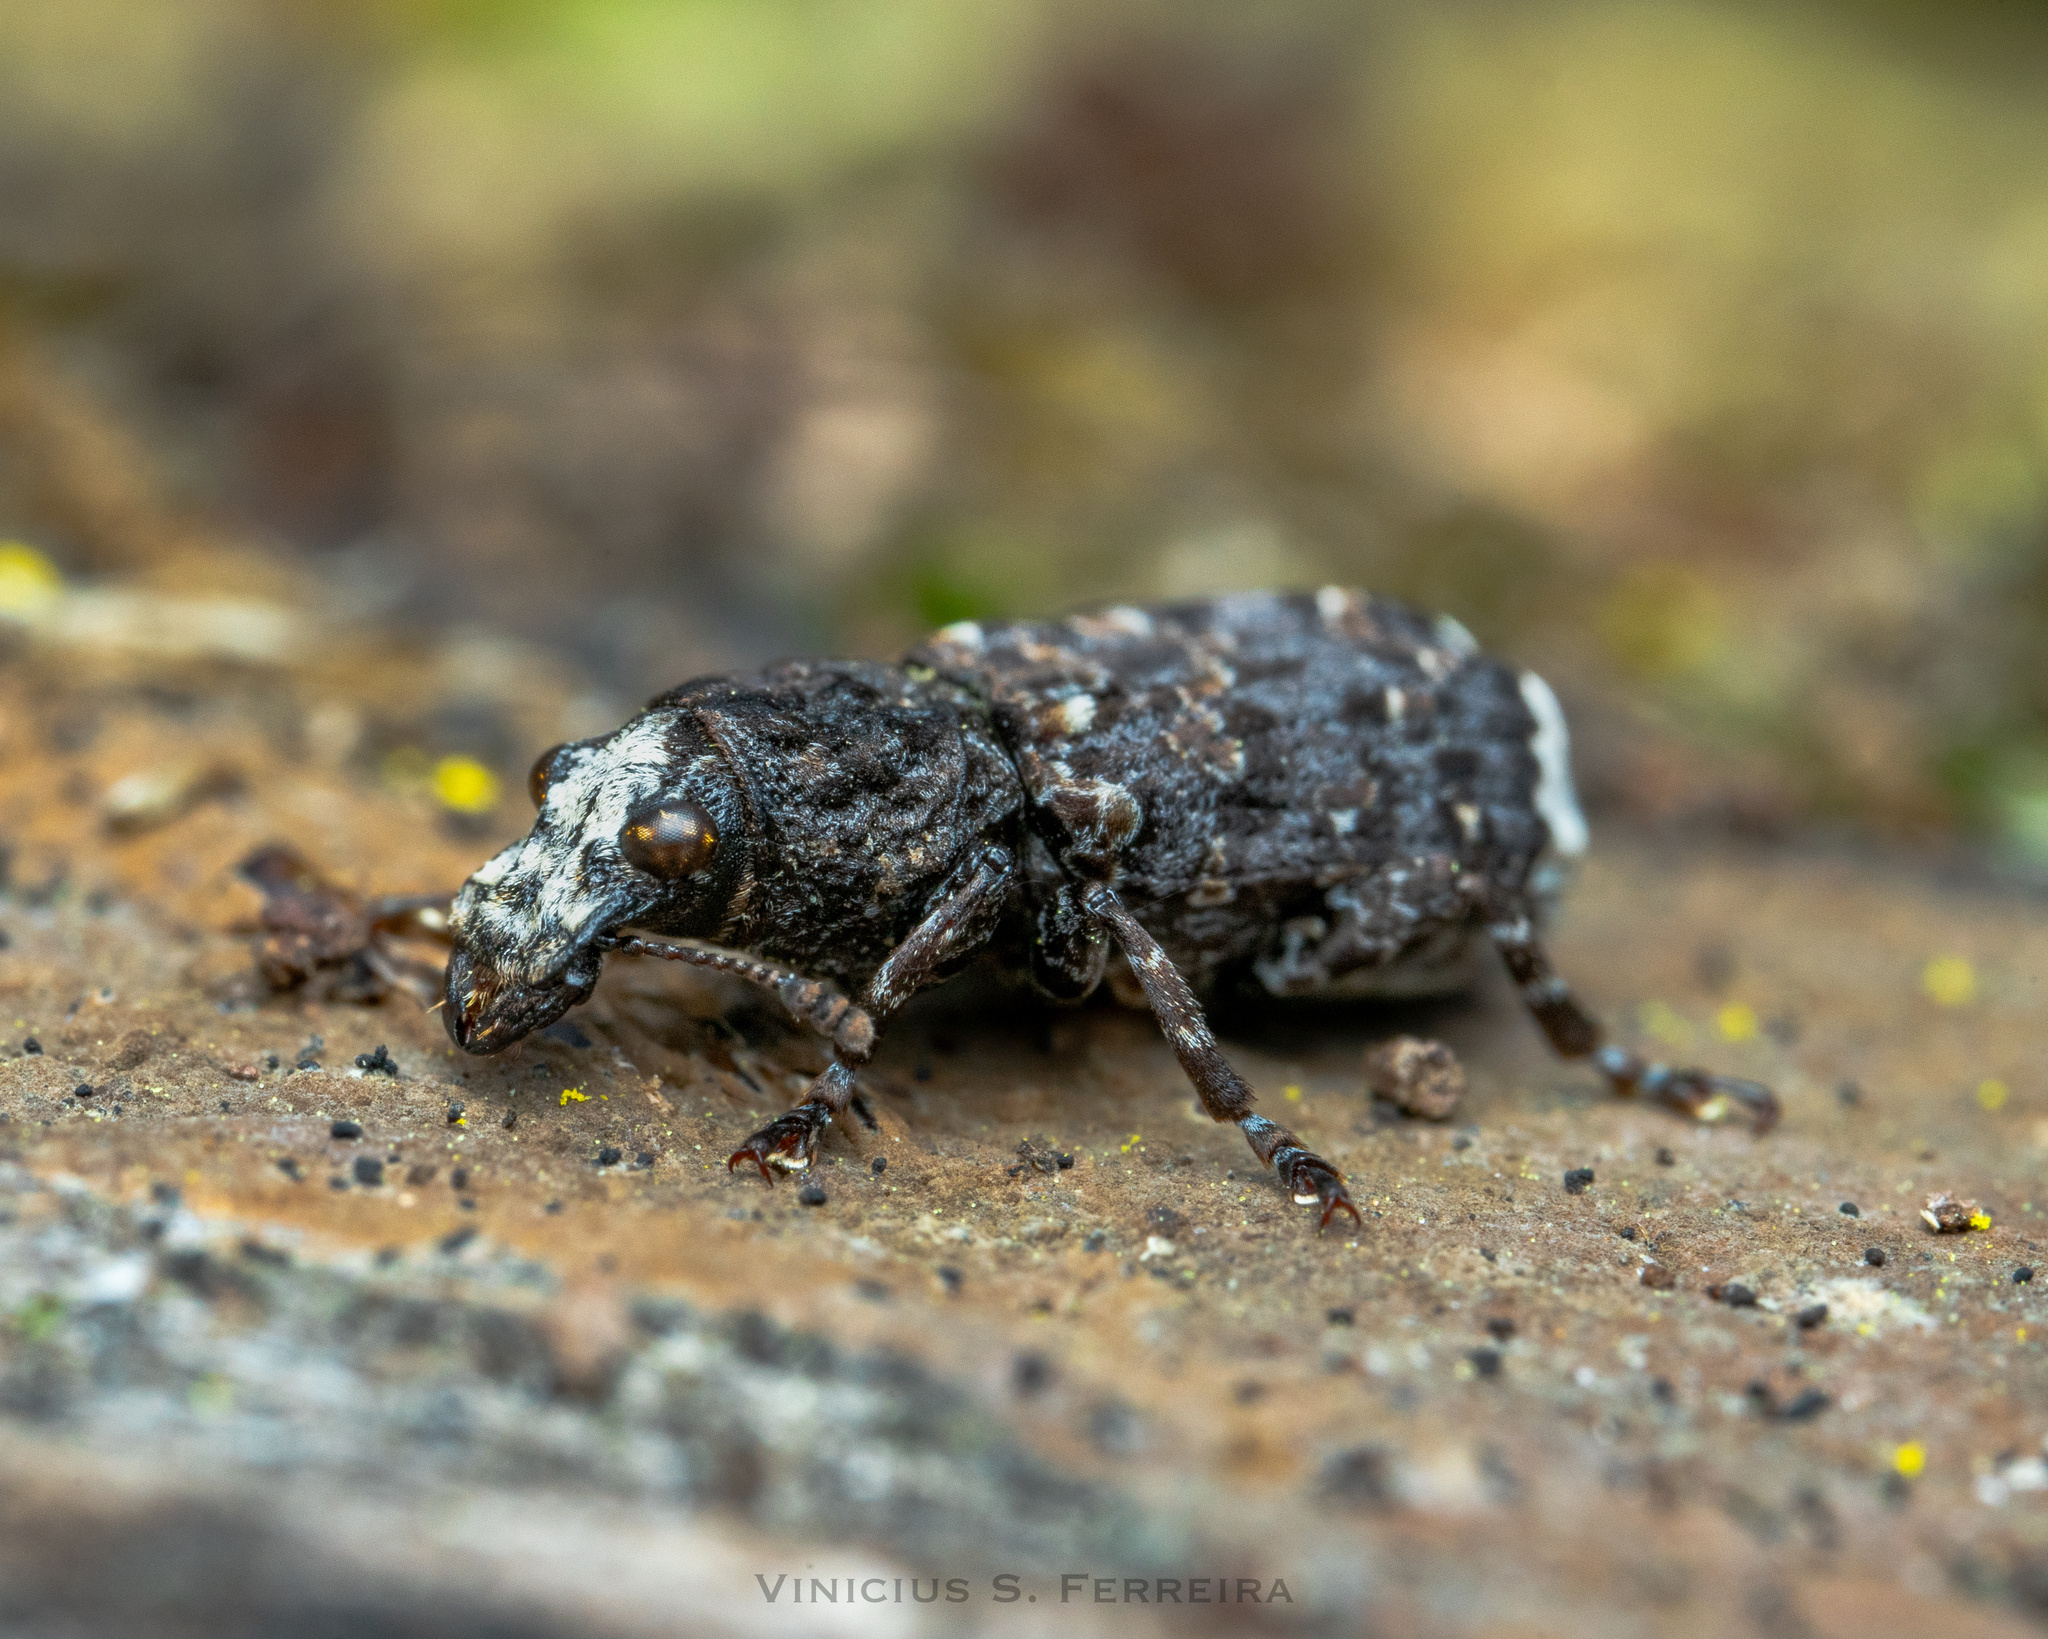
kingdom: Animalia
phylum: Arthropoda
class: Insecta
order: Coleoptera
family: Anthribidae
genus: Platyrhinus
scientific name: Platyrhinus resinosus
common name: Cramp-ball fungus weevil
